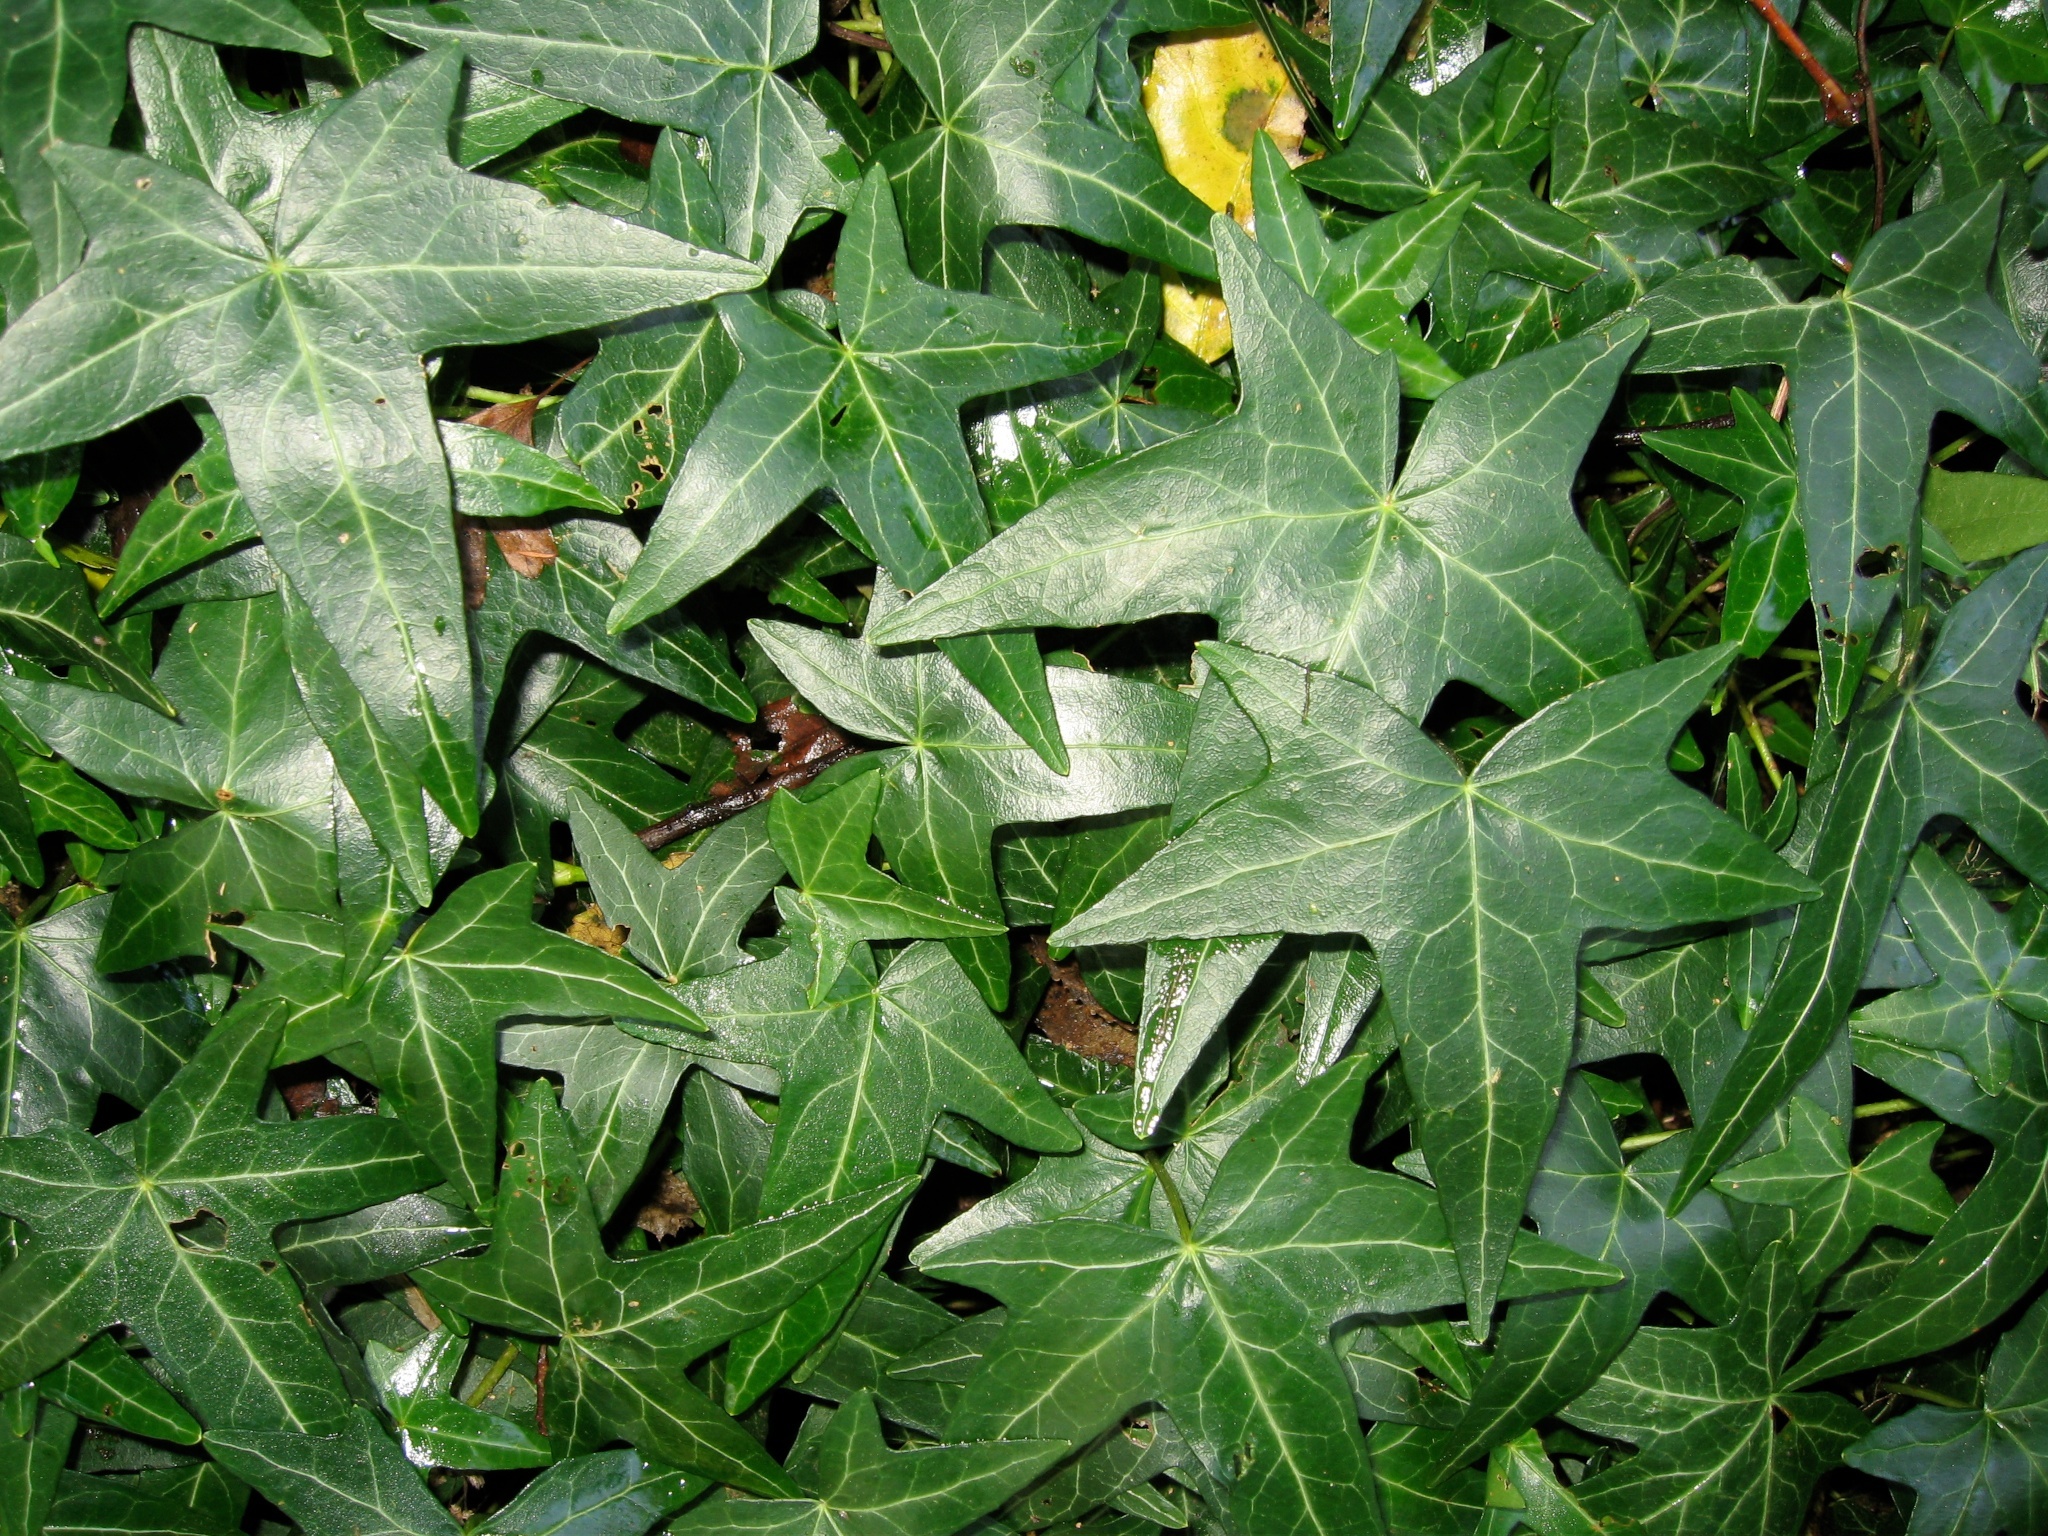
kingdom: Plantae
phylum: Tracheophyta
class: Magnoliopsida
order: Apiales
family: Araliaceae
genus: Hedera
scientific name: Hedera helix
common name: Ivy
